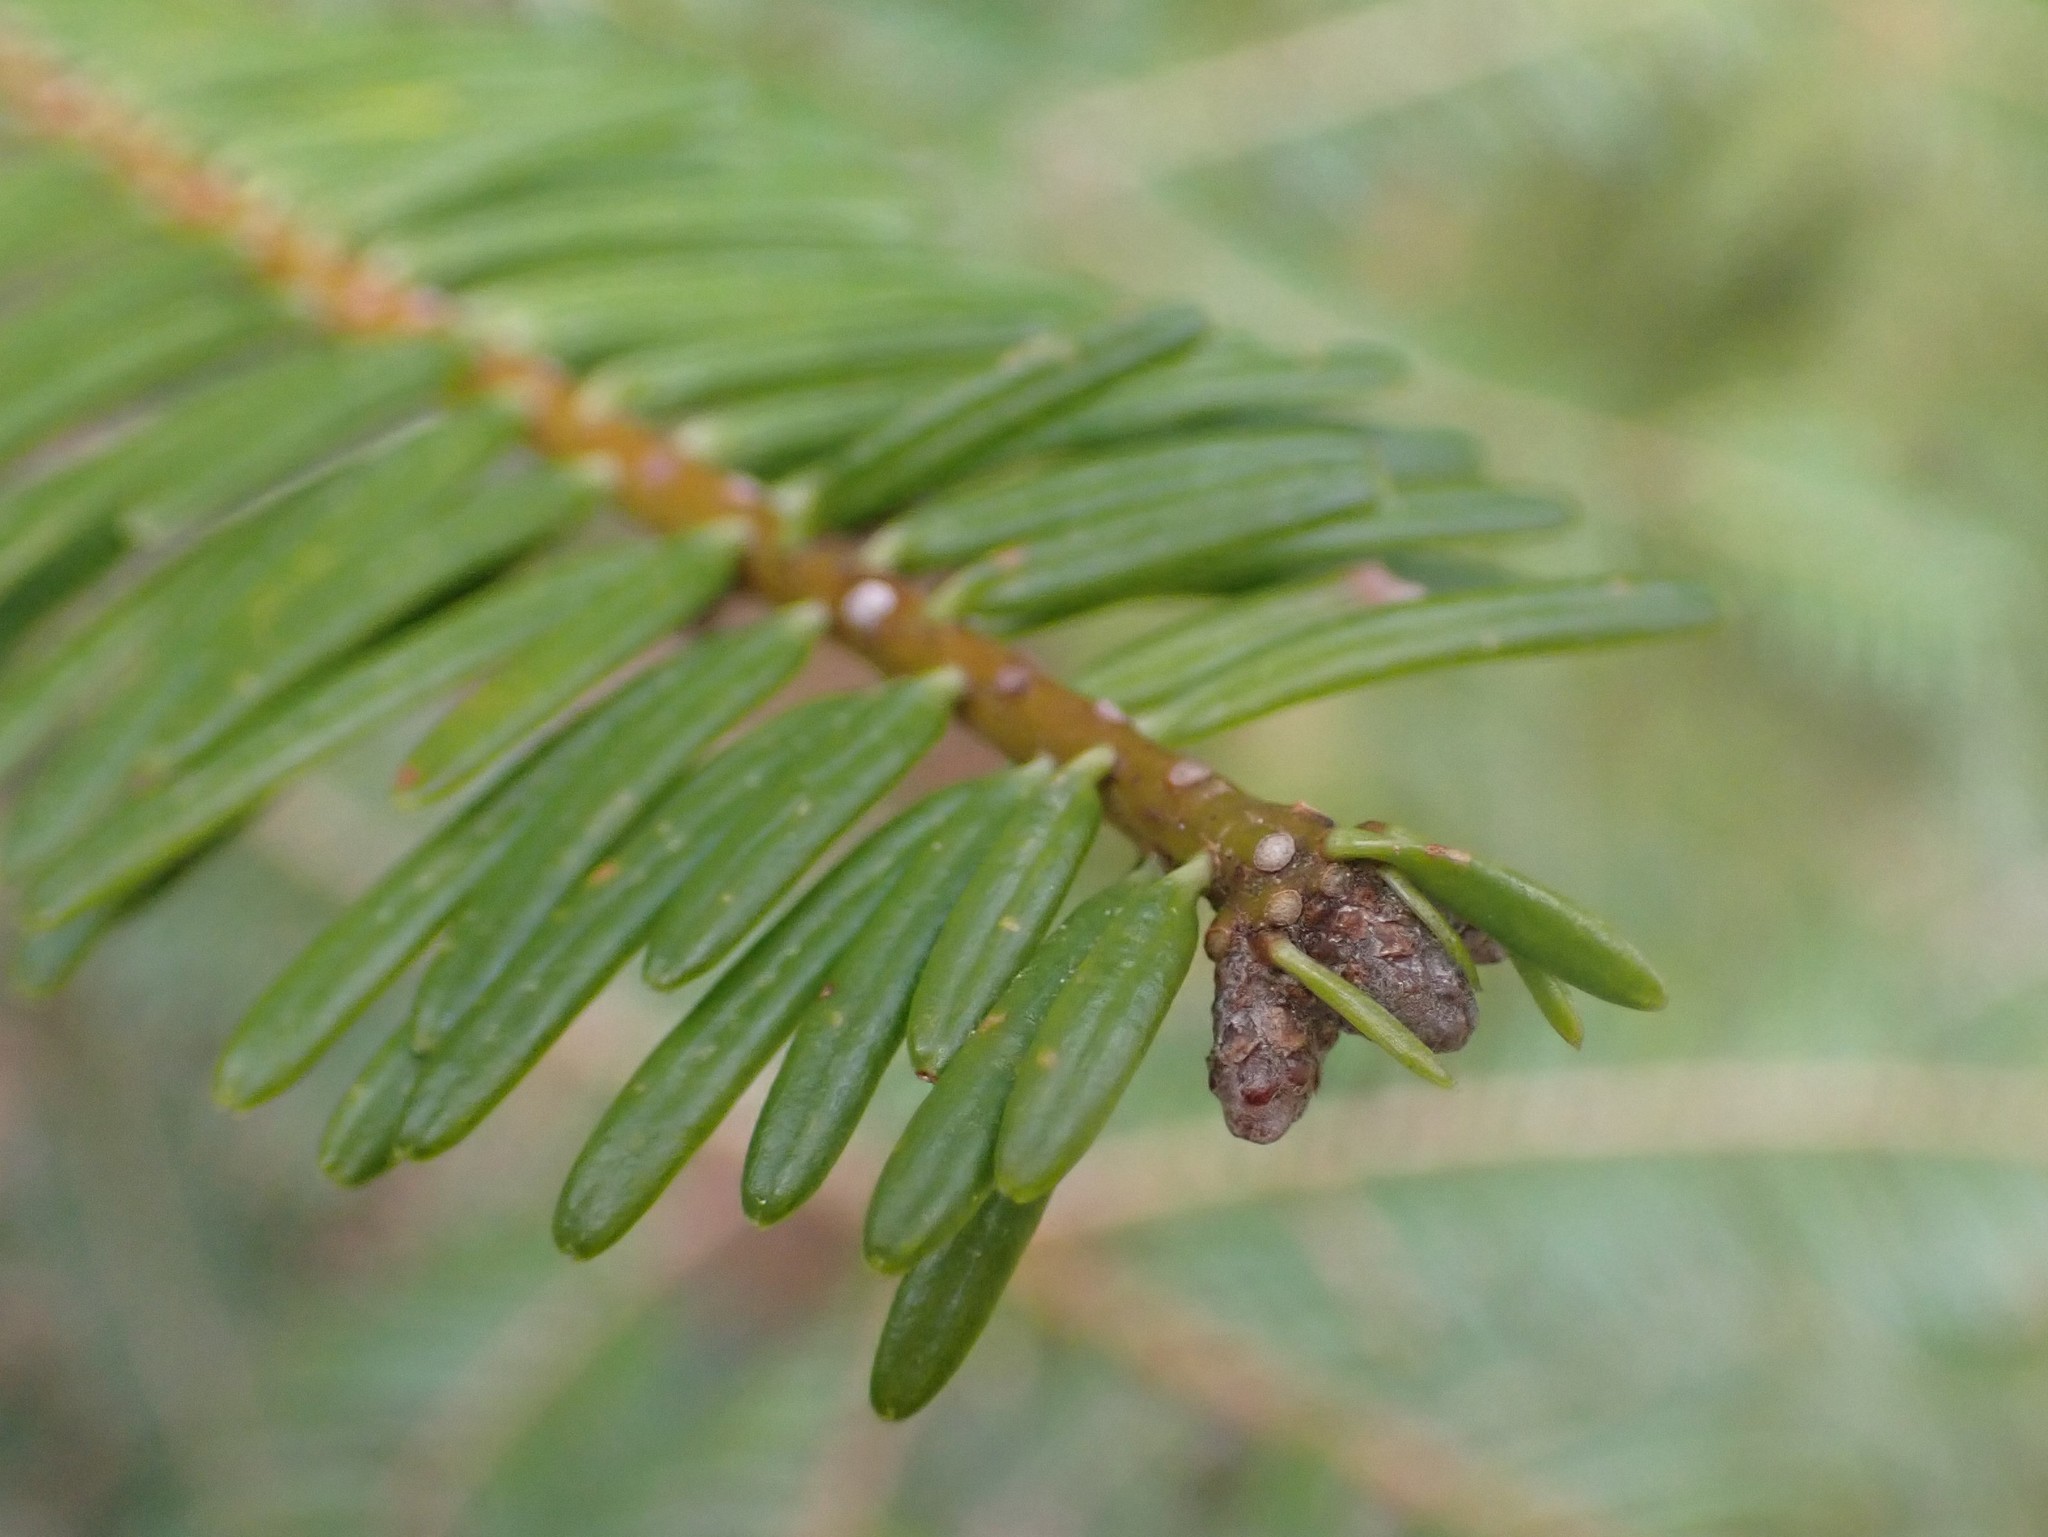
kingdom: Plantae
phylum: Tracheophyta
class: Pinopsida
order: Pinales
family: Pinaceae
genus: Abies
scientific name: Abies grandis
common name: Giant fir
